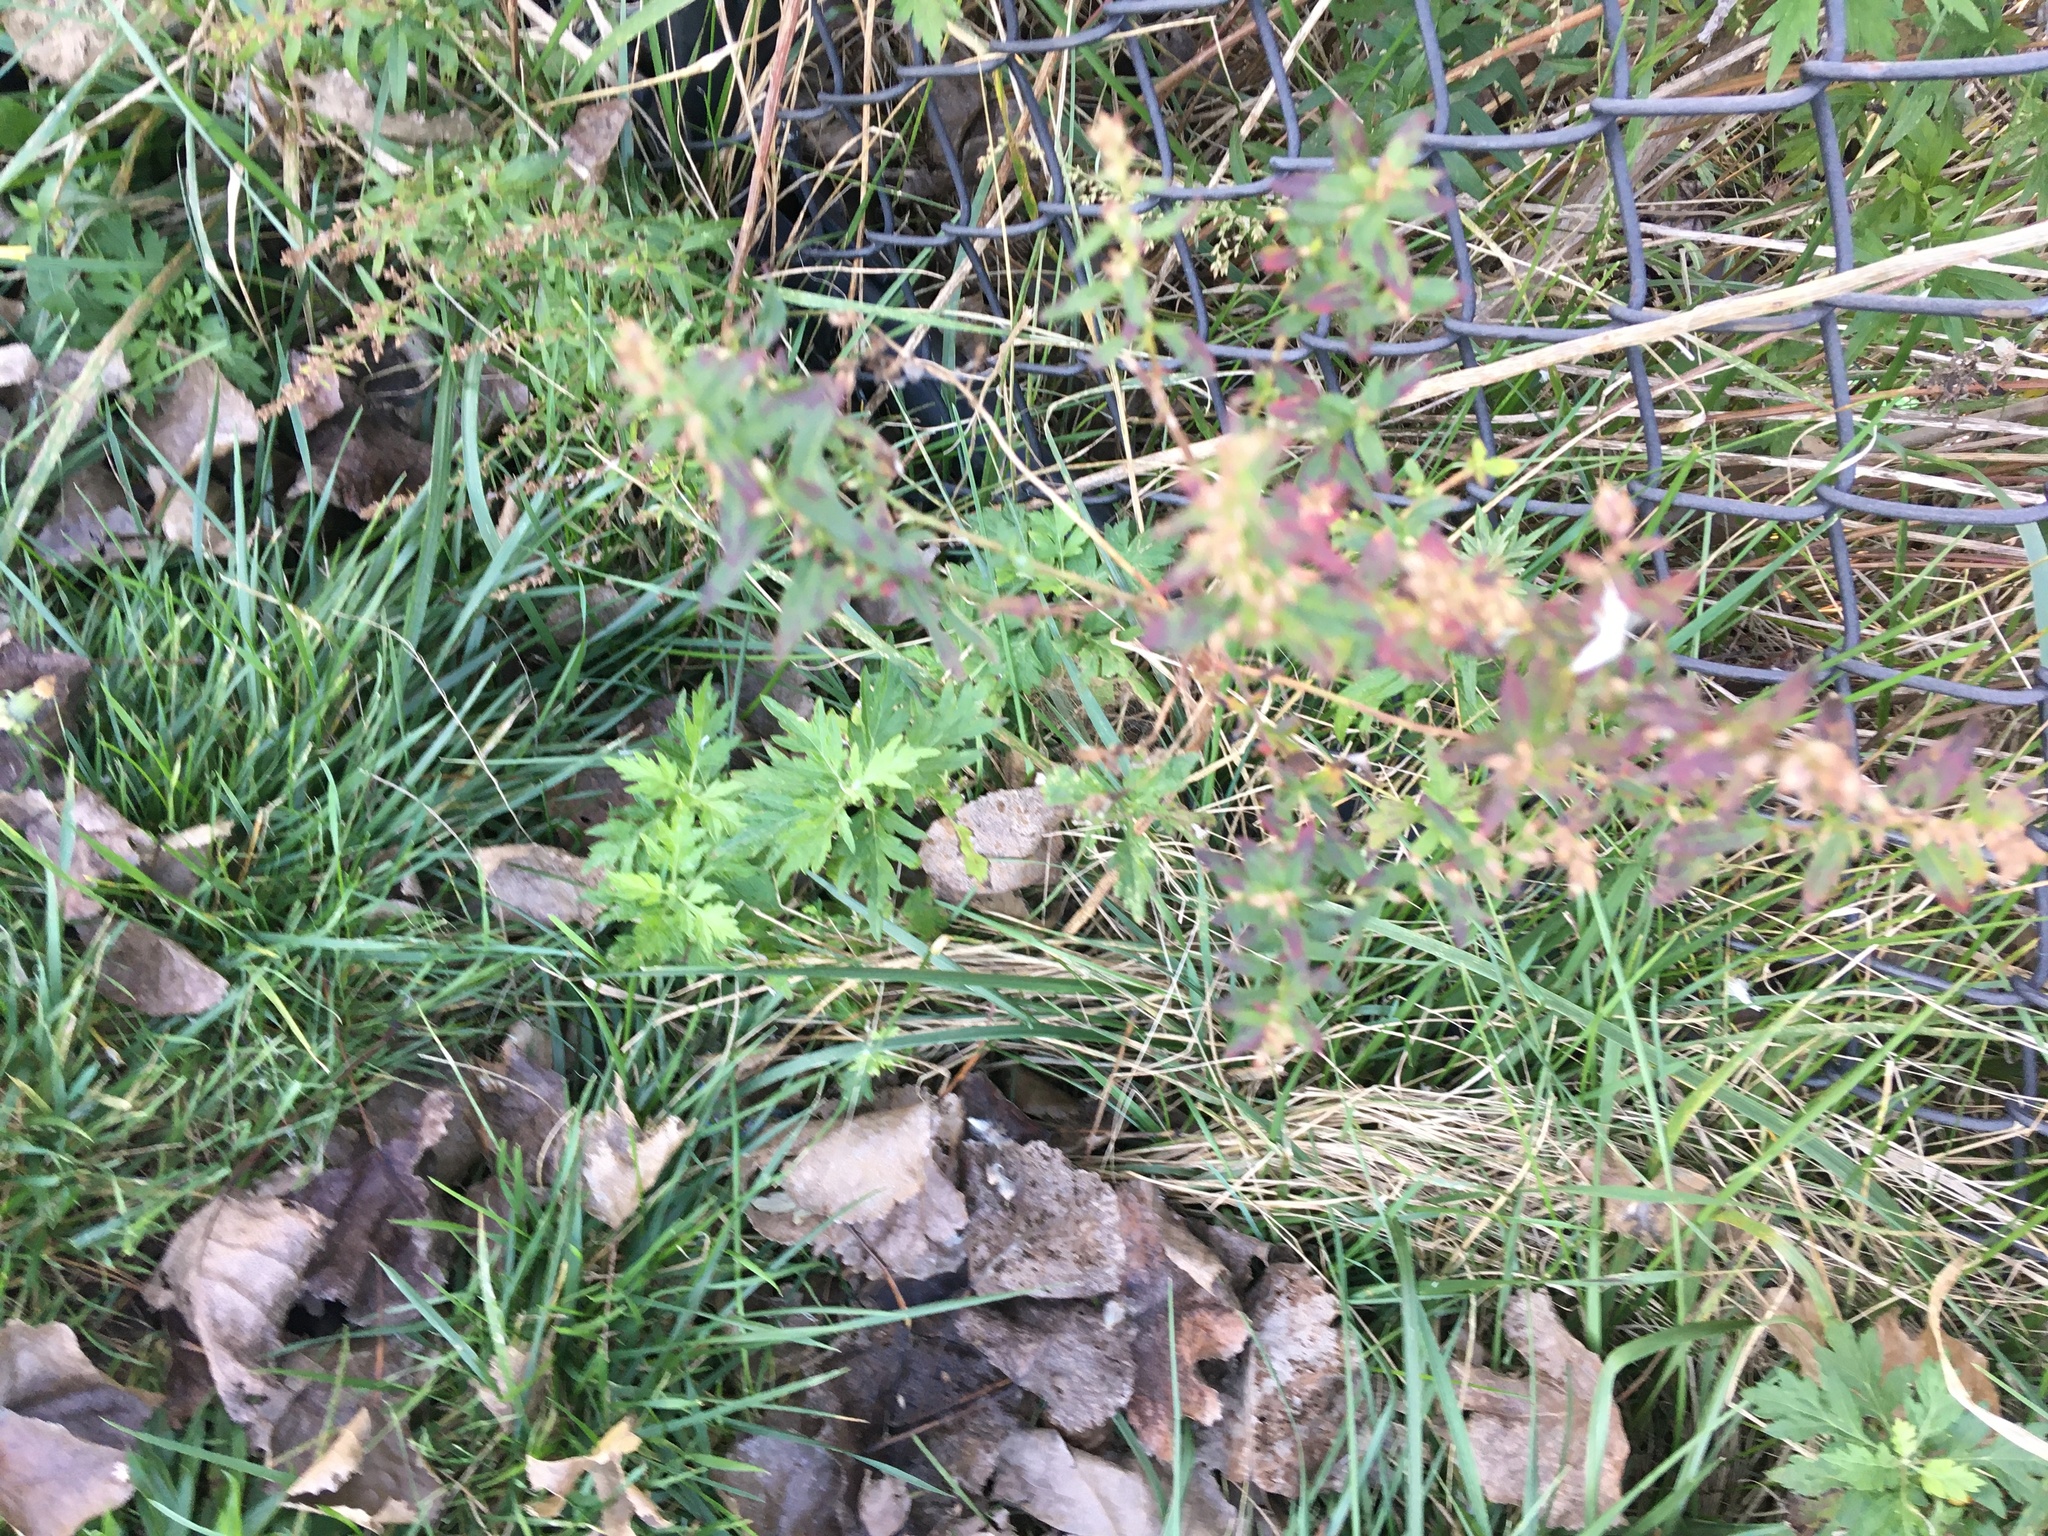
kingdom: Plantae
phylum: Tracheophyta
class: Magnoliopsida
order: Asterales
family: Asteraceae
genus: Artemisia
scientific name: Artemisia vulgaris
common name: Mugwort
